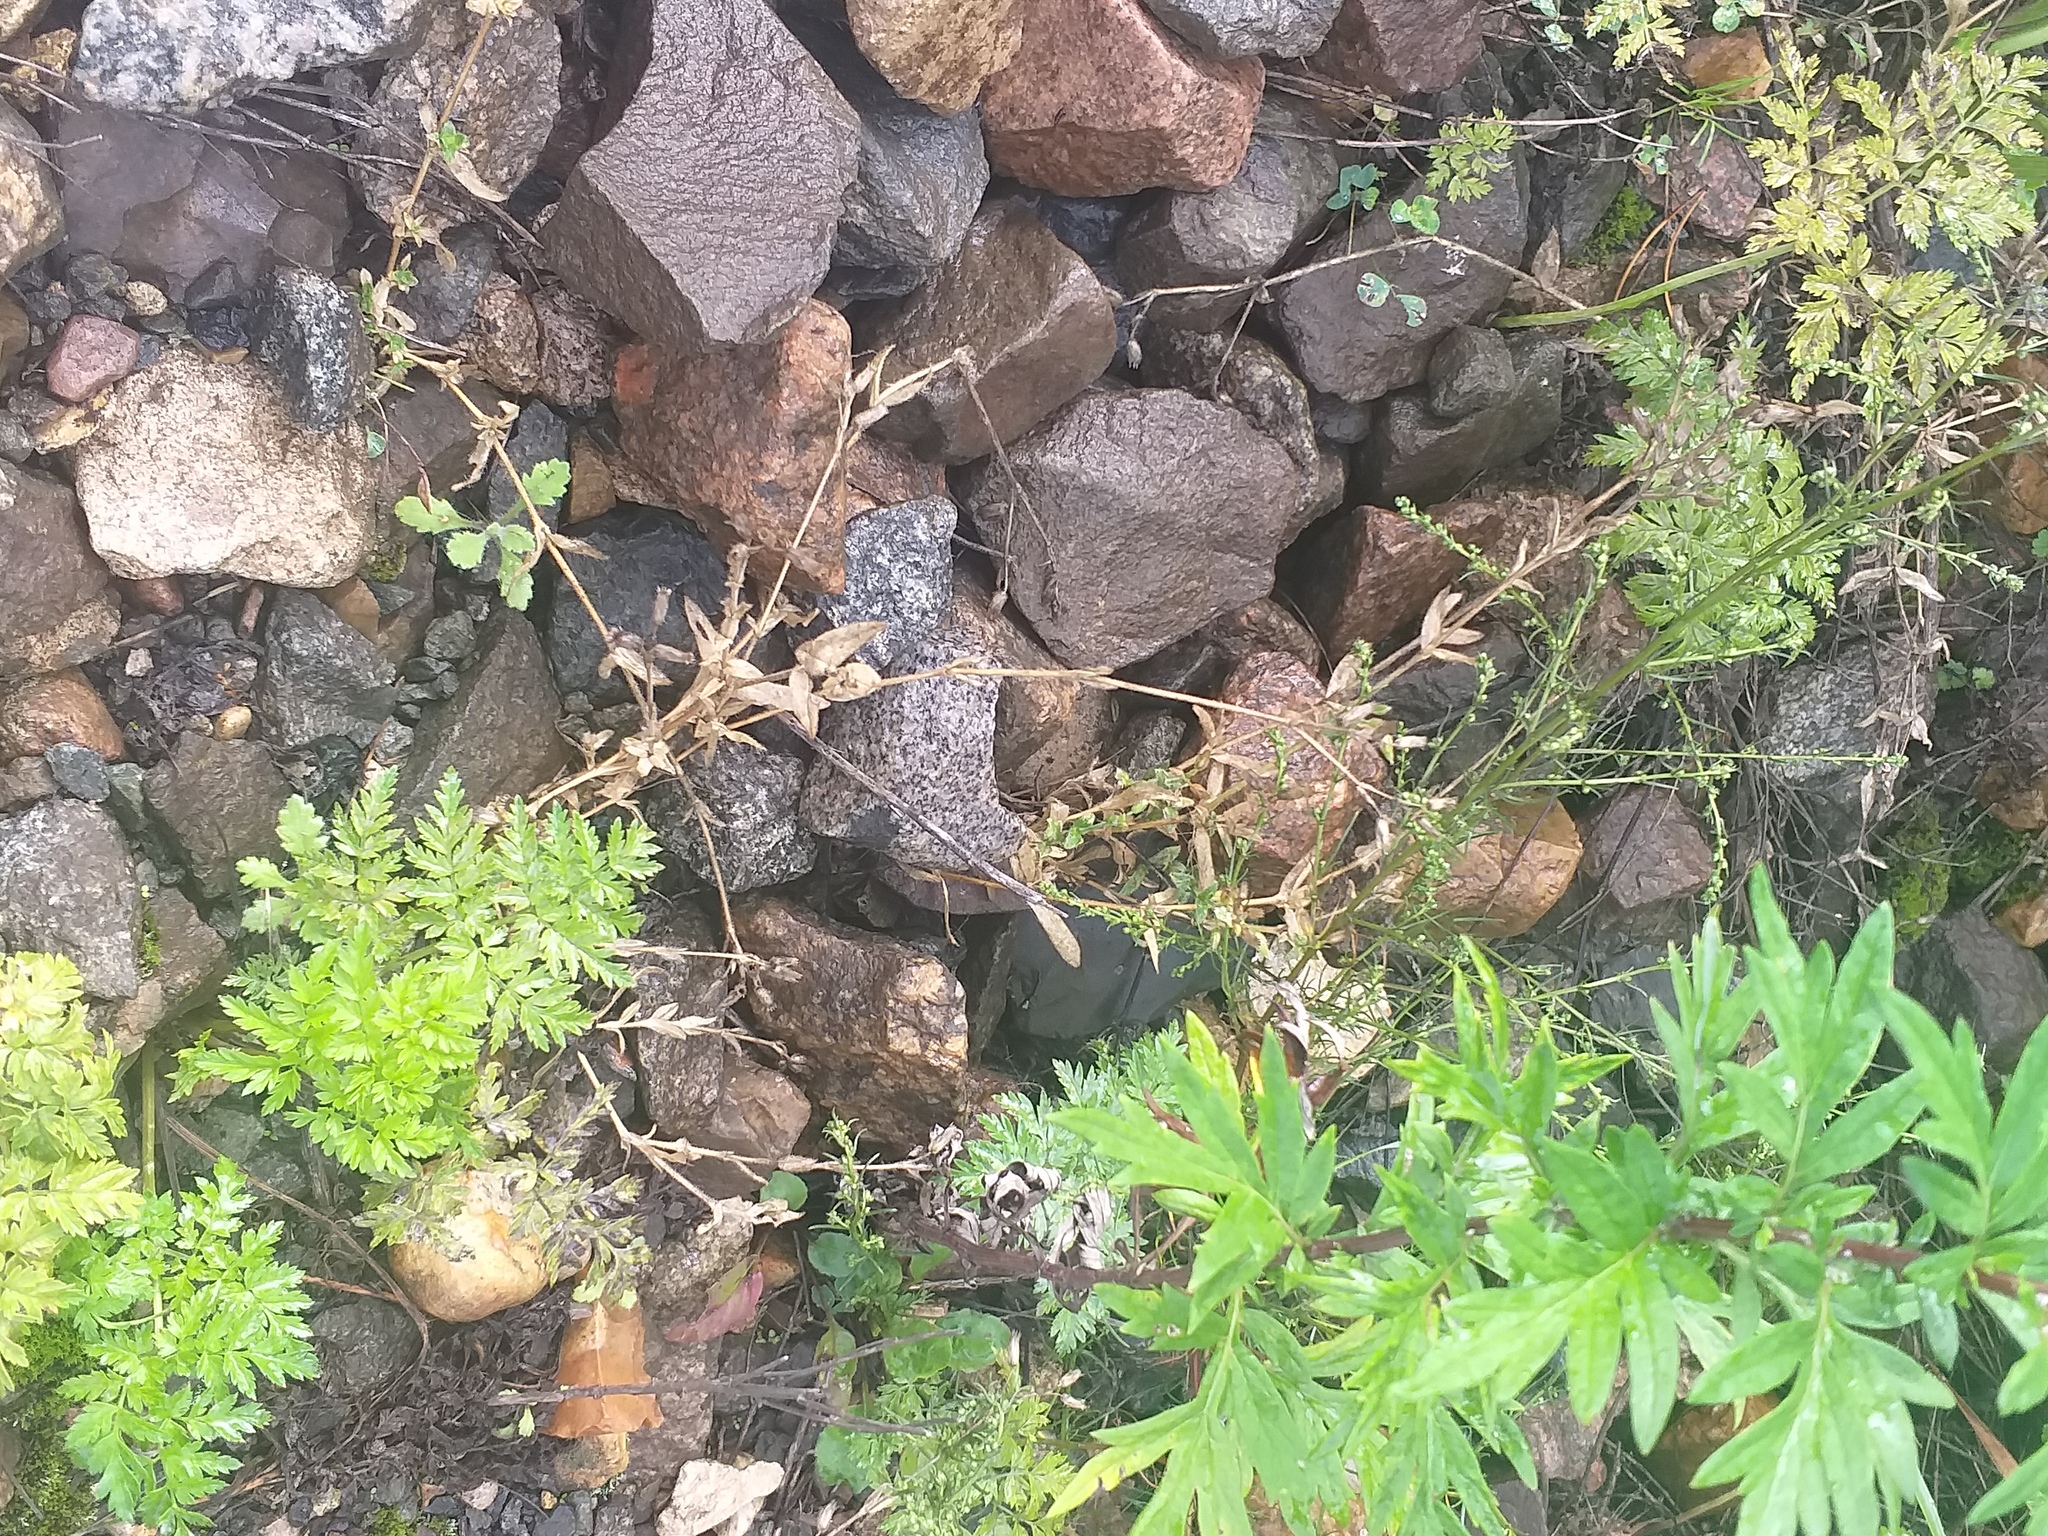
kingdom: Plantae
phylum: Tracheophyta
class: Magnoliopsida
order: Caryophyllales
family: Caryophyllaceae
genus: Cerastium
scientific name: Cerastium holosteoides
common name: Big chickweed
